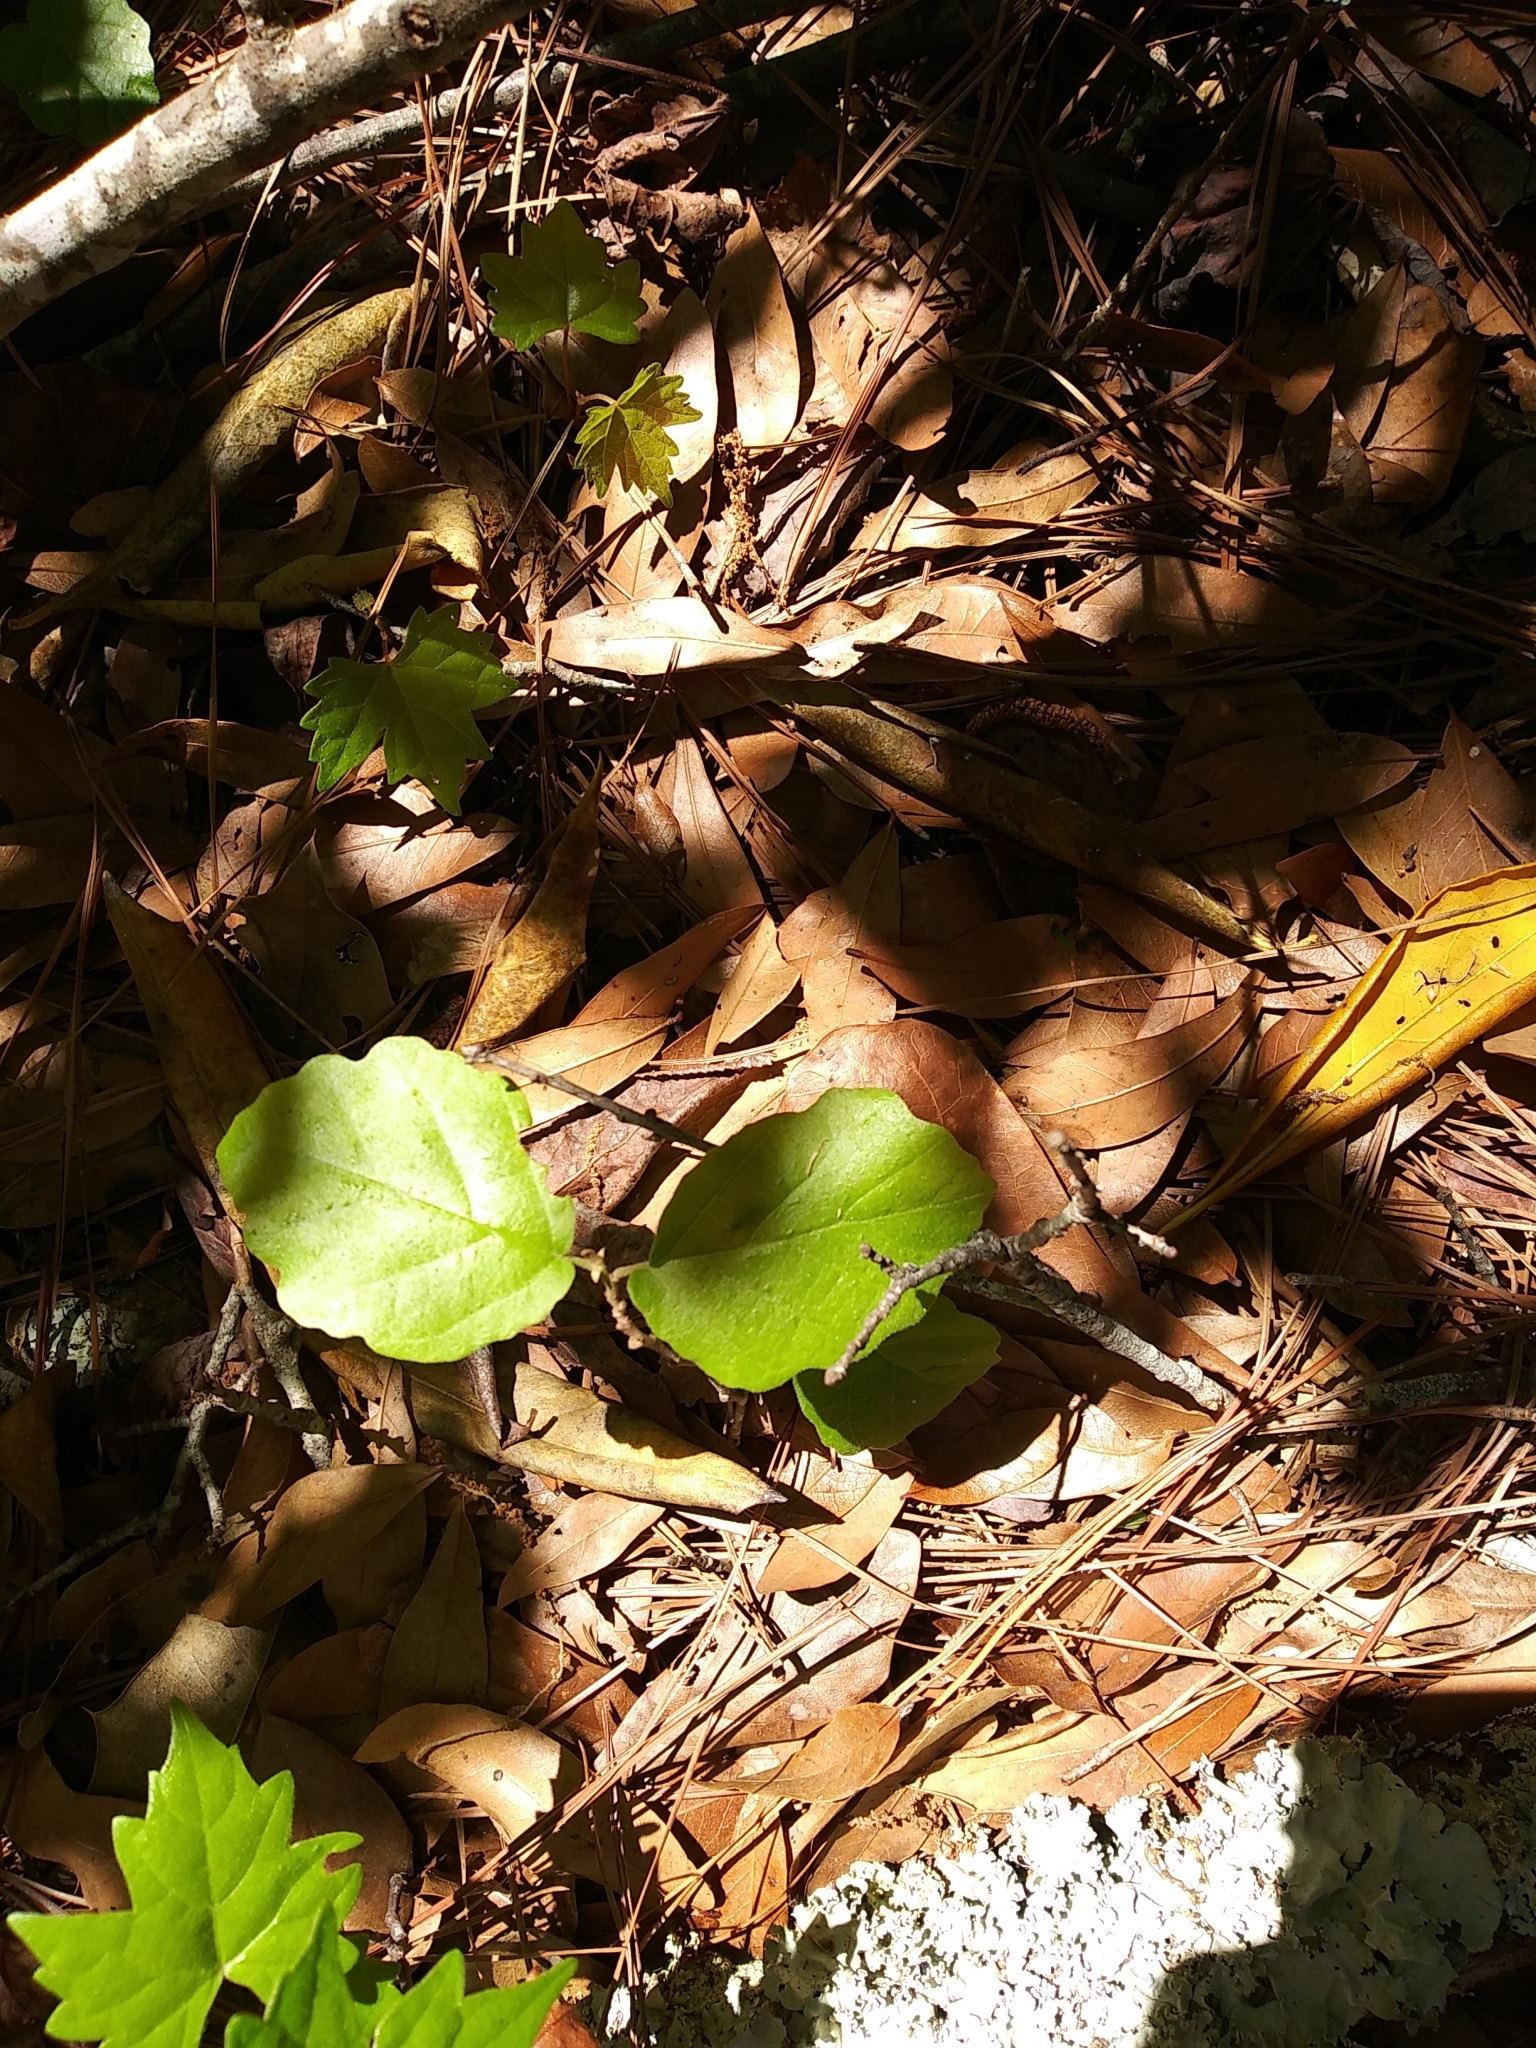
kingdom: Plantae
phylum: Tracheophyta
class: Magnoliopsida
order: Saxifragales
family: Hamamelidaceae
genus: Hamamelis
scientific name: Hamamelis virginiana
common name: Witch-hazel
